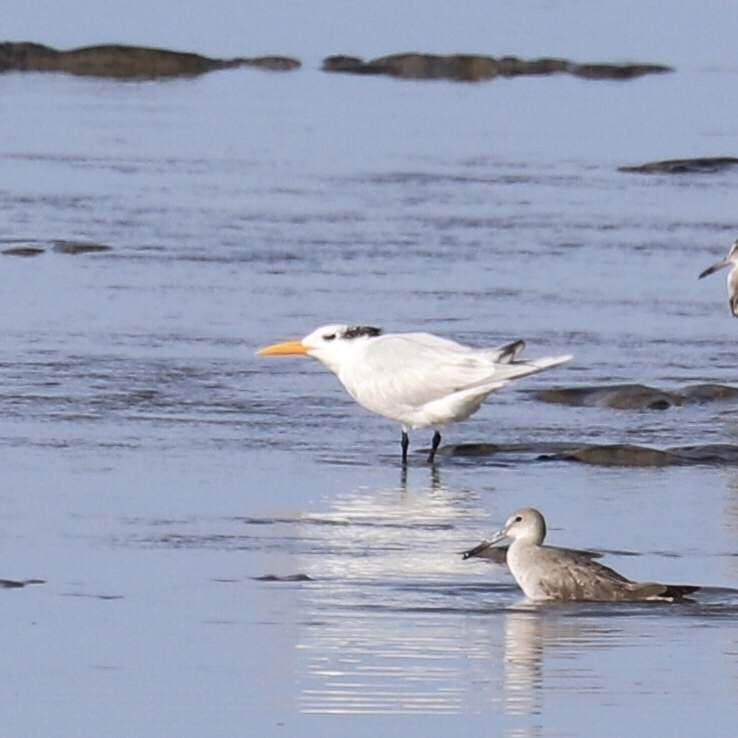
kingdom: Animalia
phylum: Chordata
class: Aves
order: Charadriiformes
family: Laridae
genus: Thalasseus
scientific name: Thalasseus maximus
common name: Royal tern
